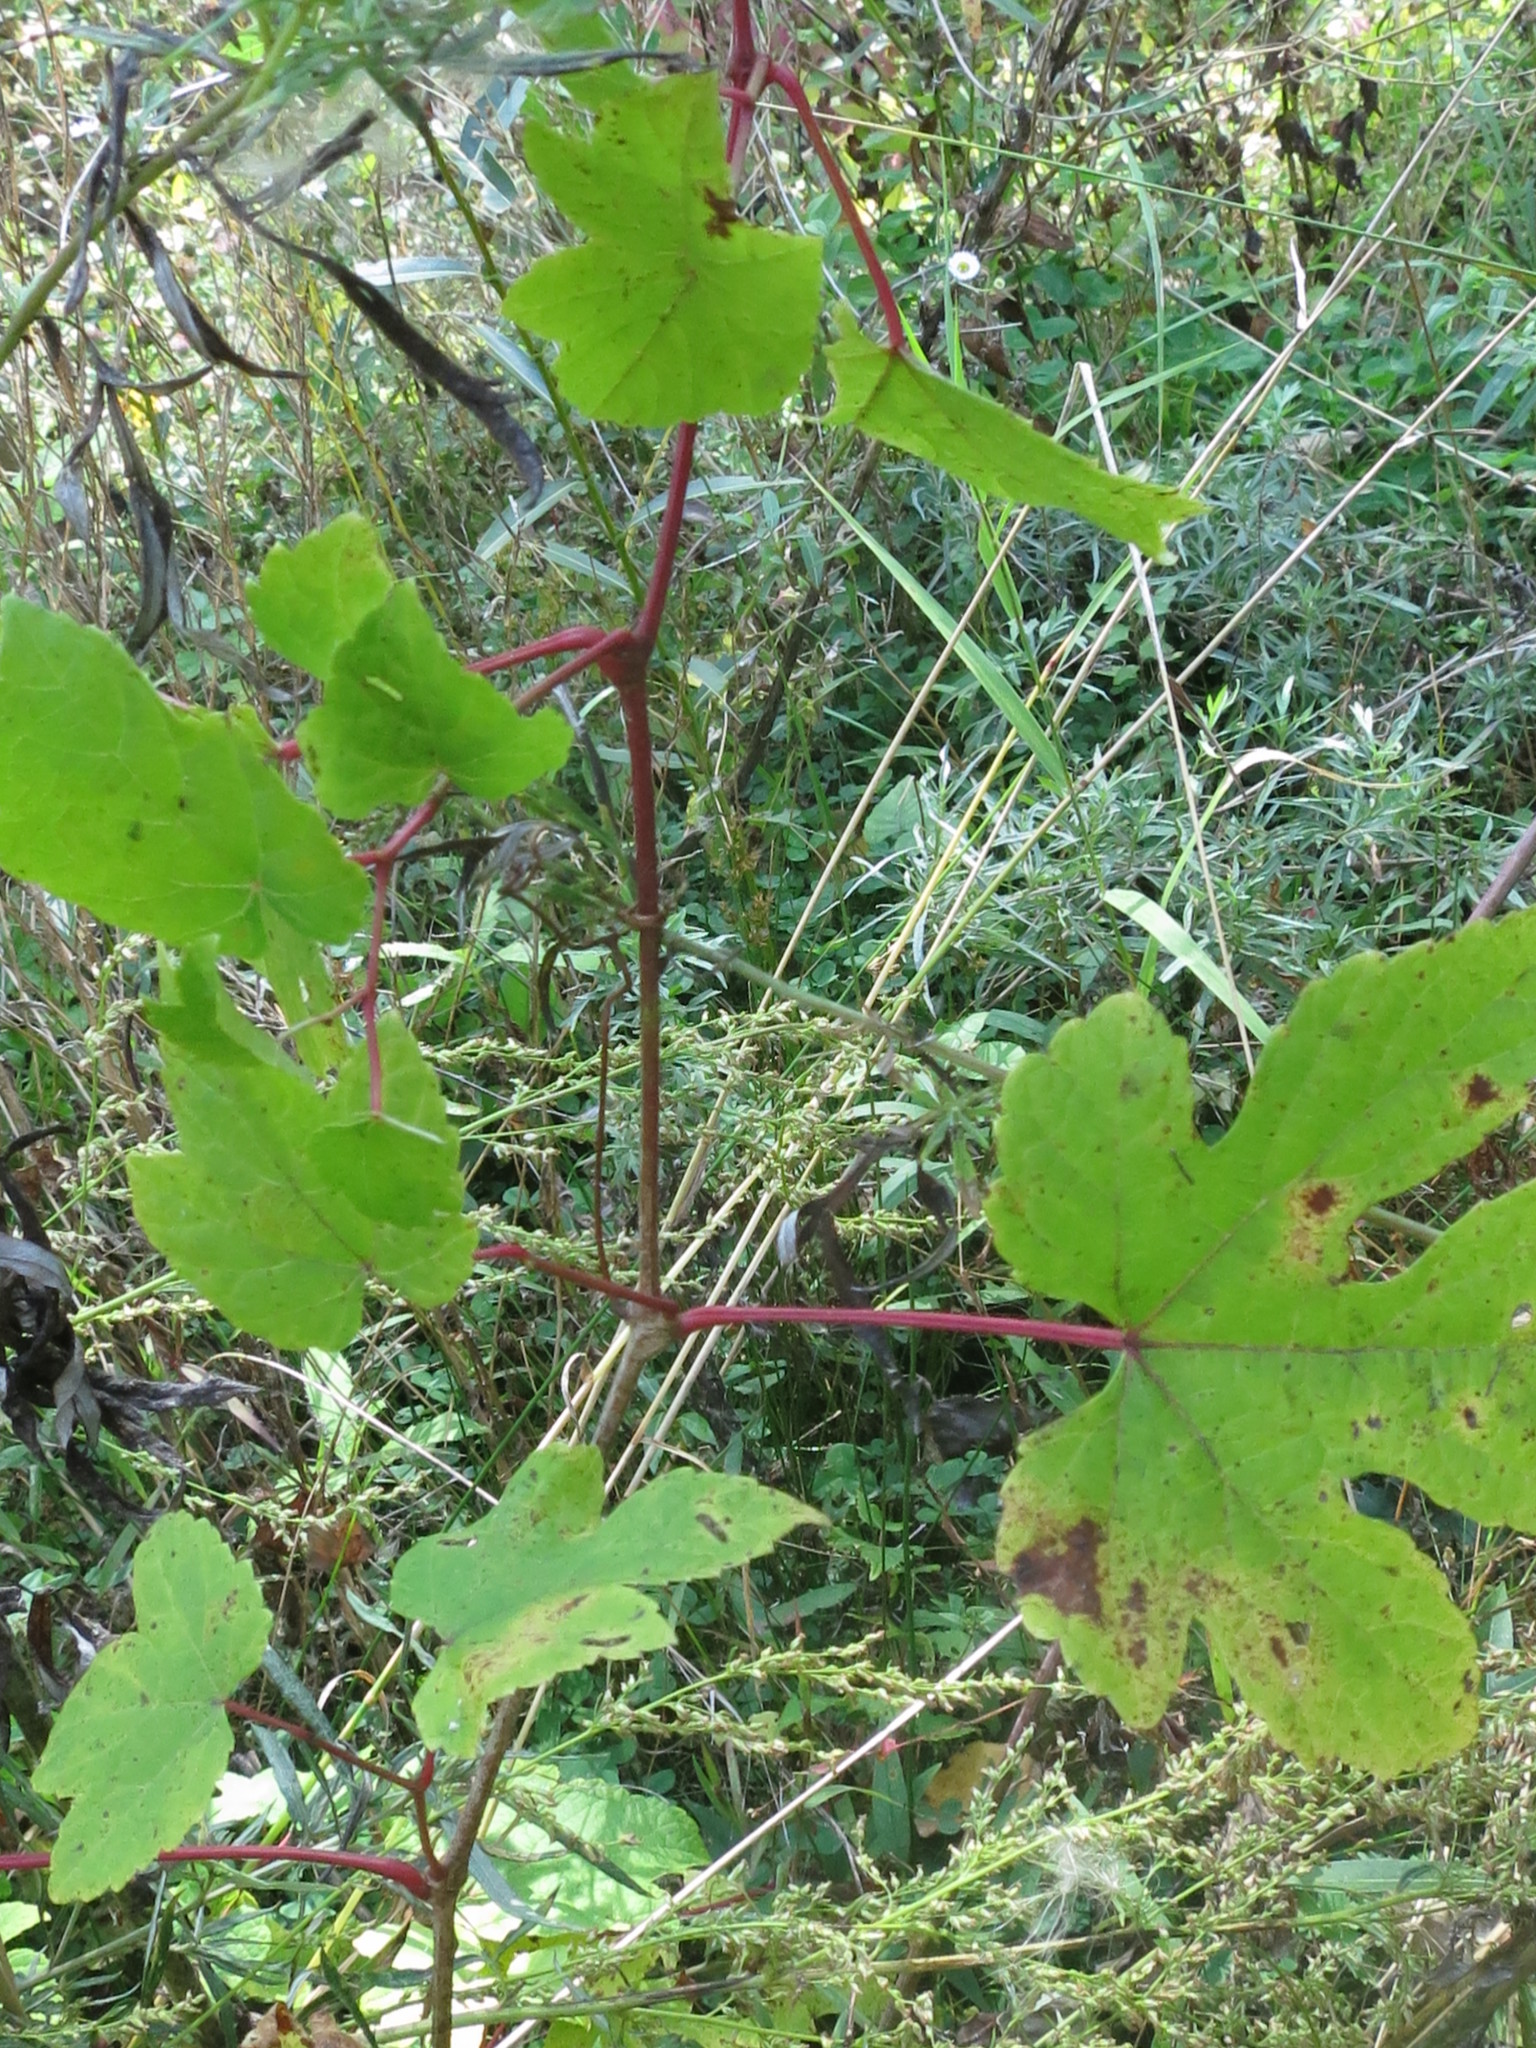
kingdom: Plantae
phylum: Tracheophyta
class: Magnoliopsida
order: Vitales
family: Vitaceae
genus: Ampelopsis
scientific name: Ampelopsis glandulosa
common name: Amur peppervine
